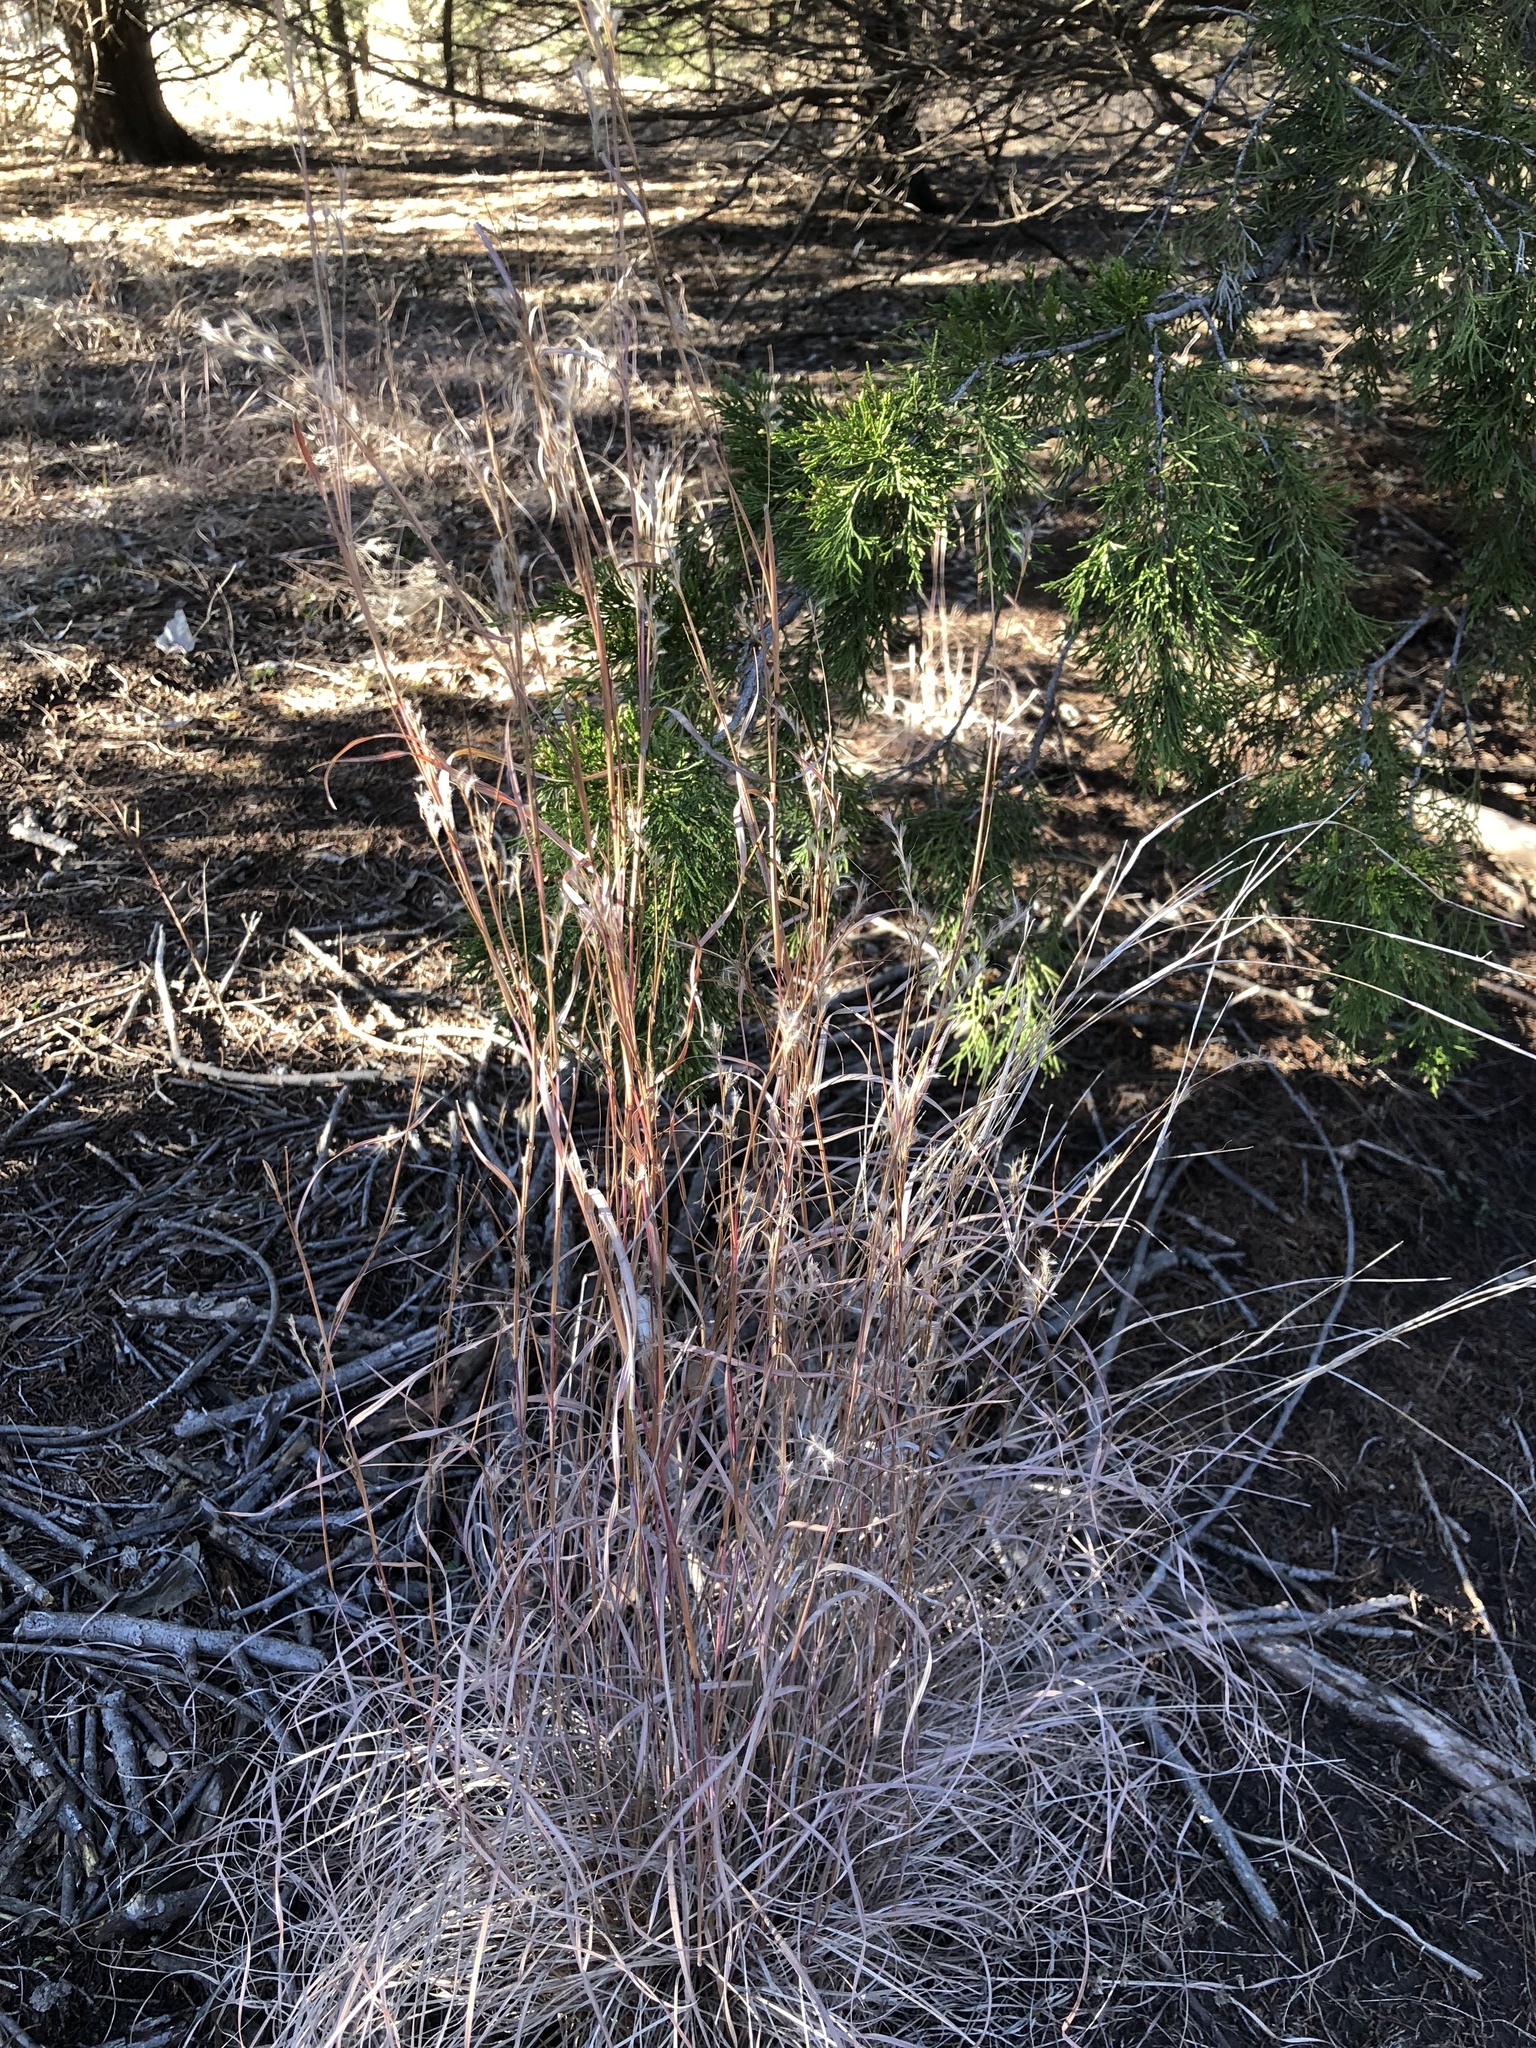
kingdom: Plantae
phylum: Tracheophyta
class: Liliopsida
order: Poales
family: Poaceae
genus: Schizachyrium
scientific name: Schizachyrium scoparium
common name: Little bluestem
